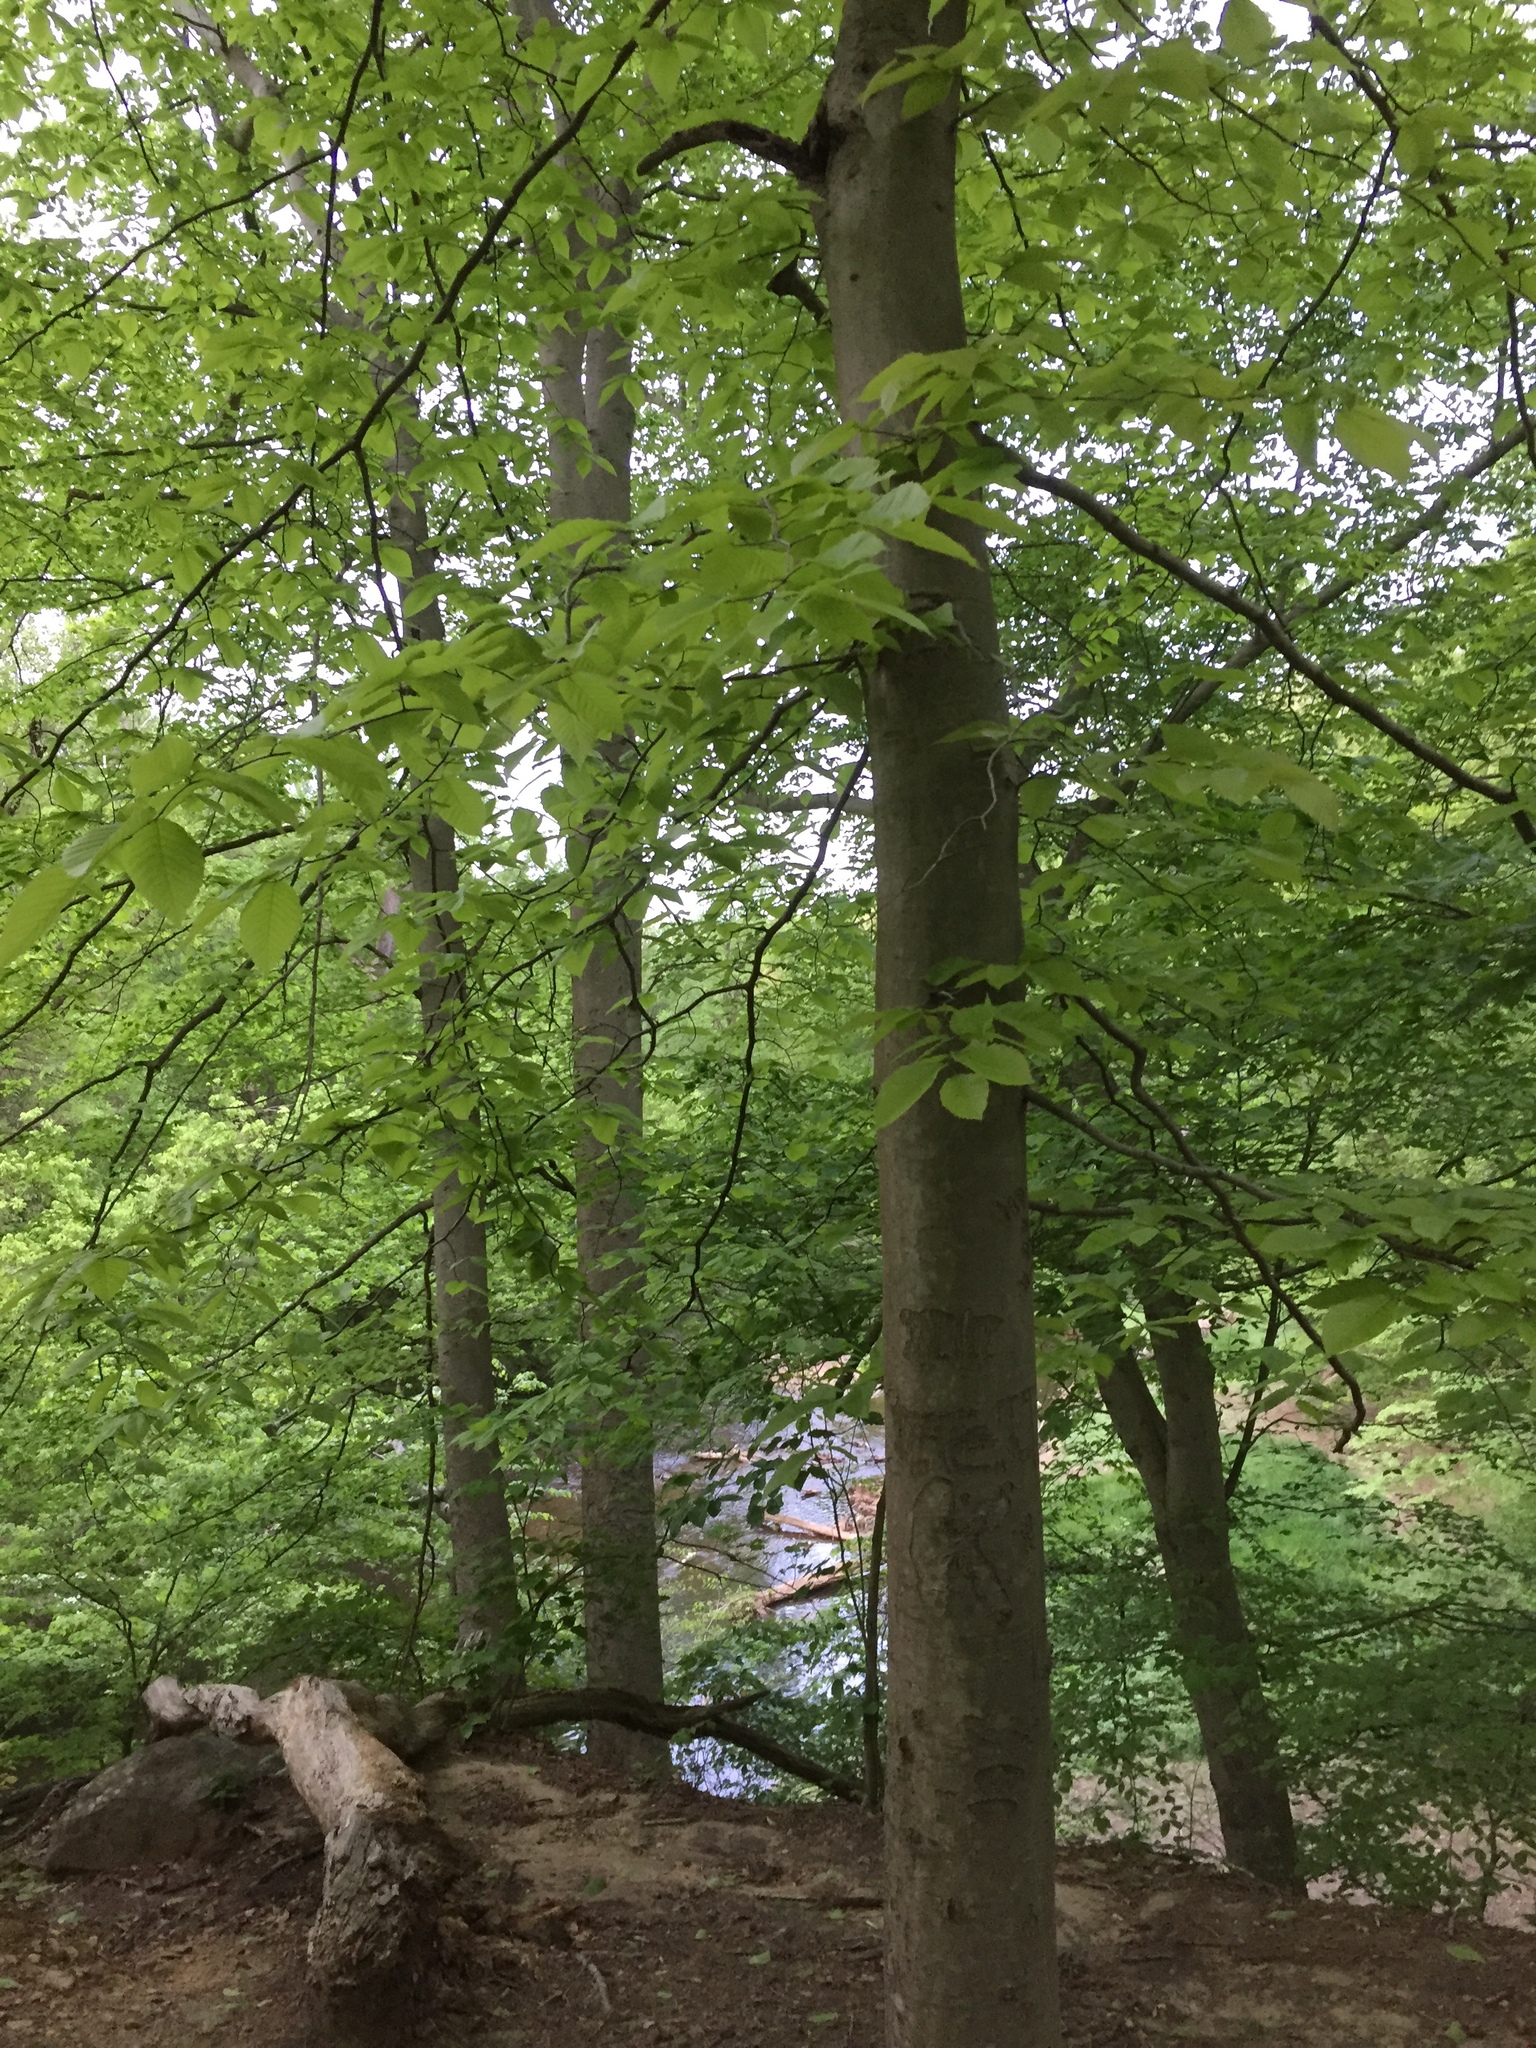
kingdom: Plantae
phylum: Tracheophyta
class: Magnoliopsida
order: Fagales
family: Fagaceae
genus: Fagus
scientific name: Fagus grandifolia
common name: American beech
